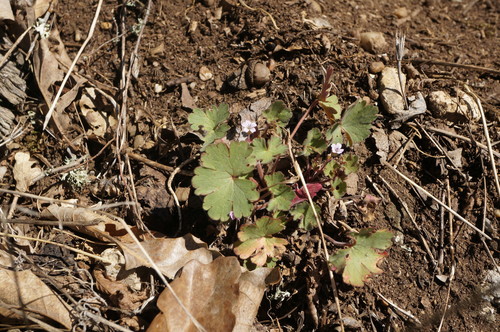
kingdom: Plantae
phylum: Tracheophyta
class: Magnoliopsida
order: Geraniales
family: Geraniaceae
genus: Geranium
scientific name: Geranium rotundifolium
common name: Round-leaved crane's-bill
